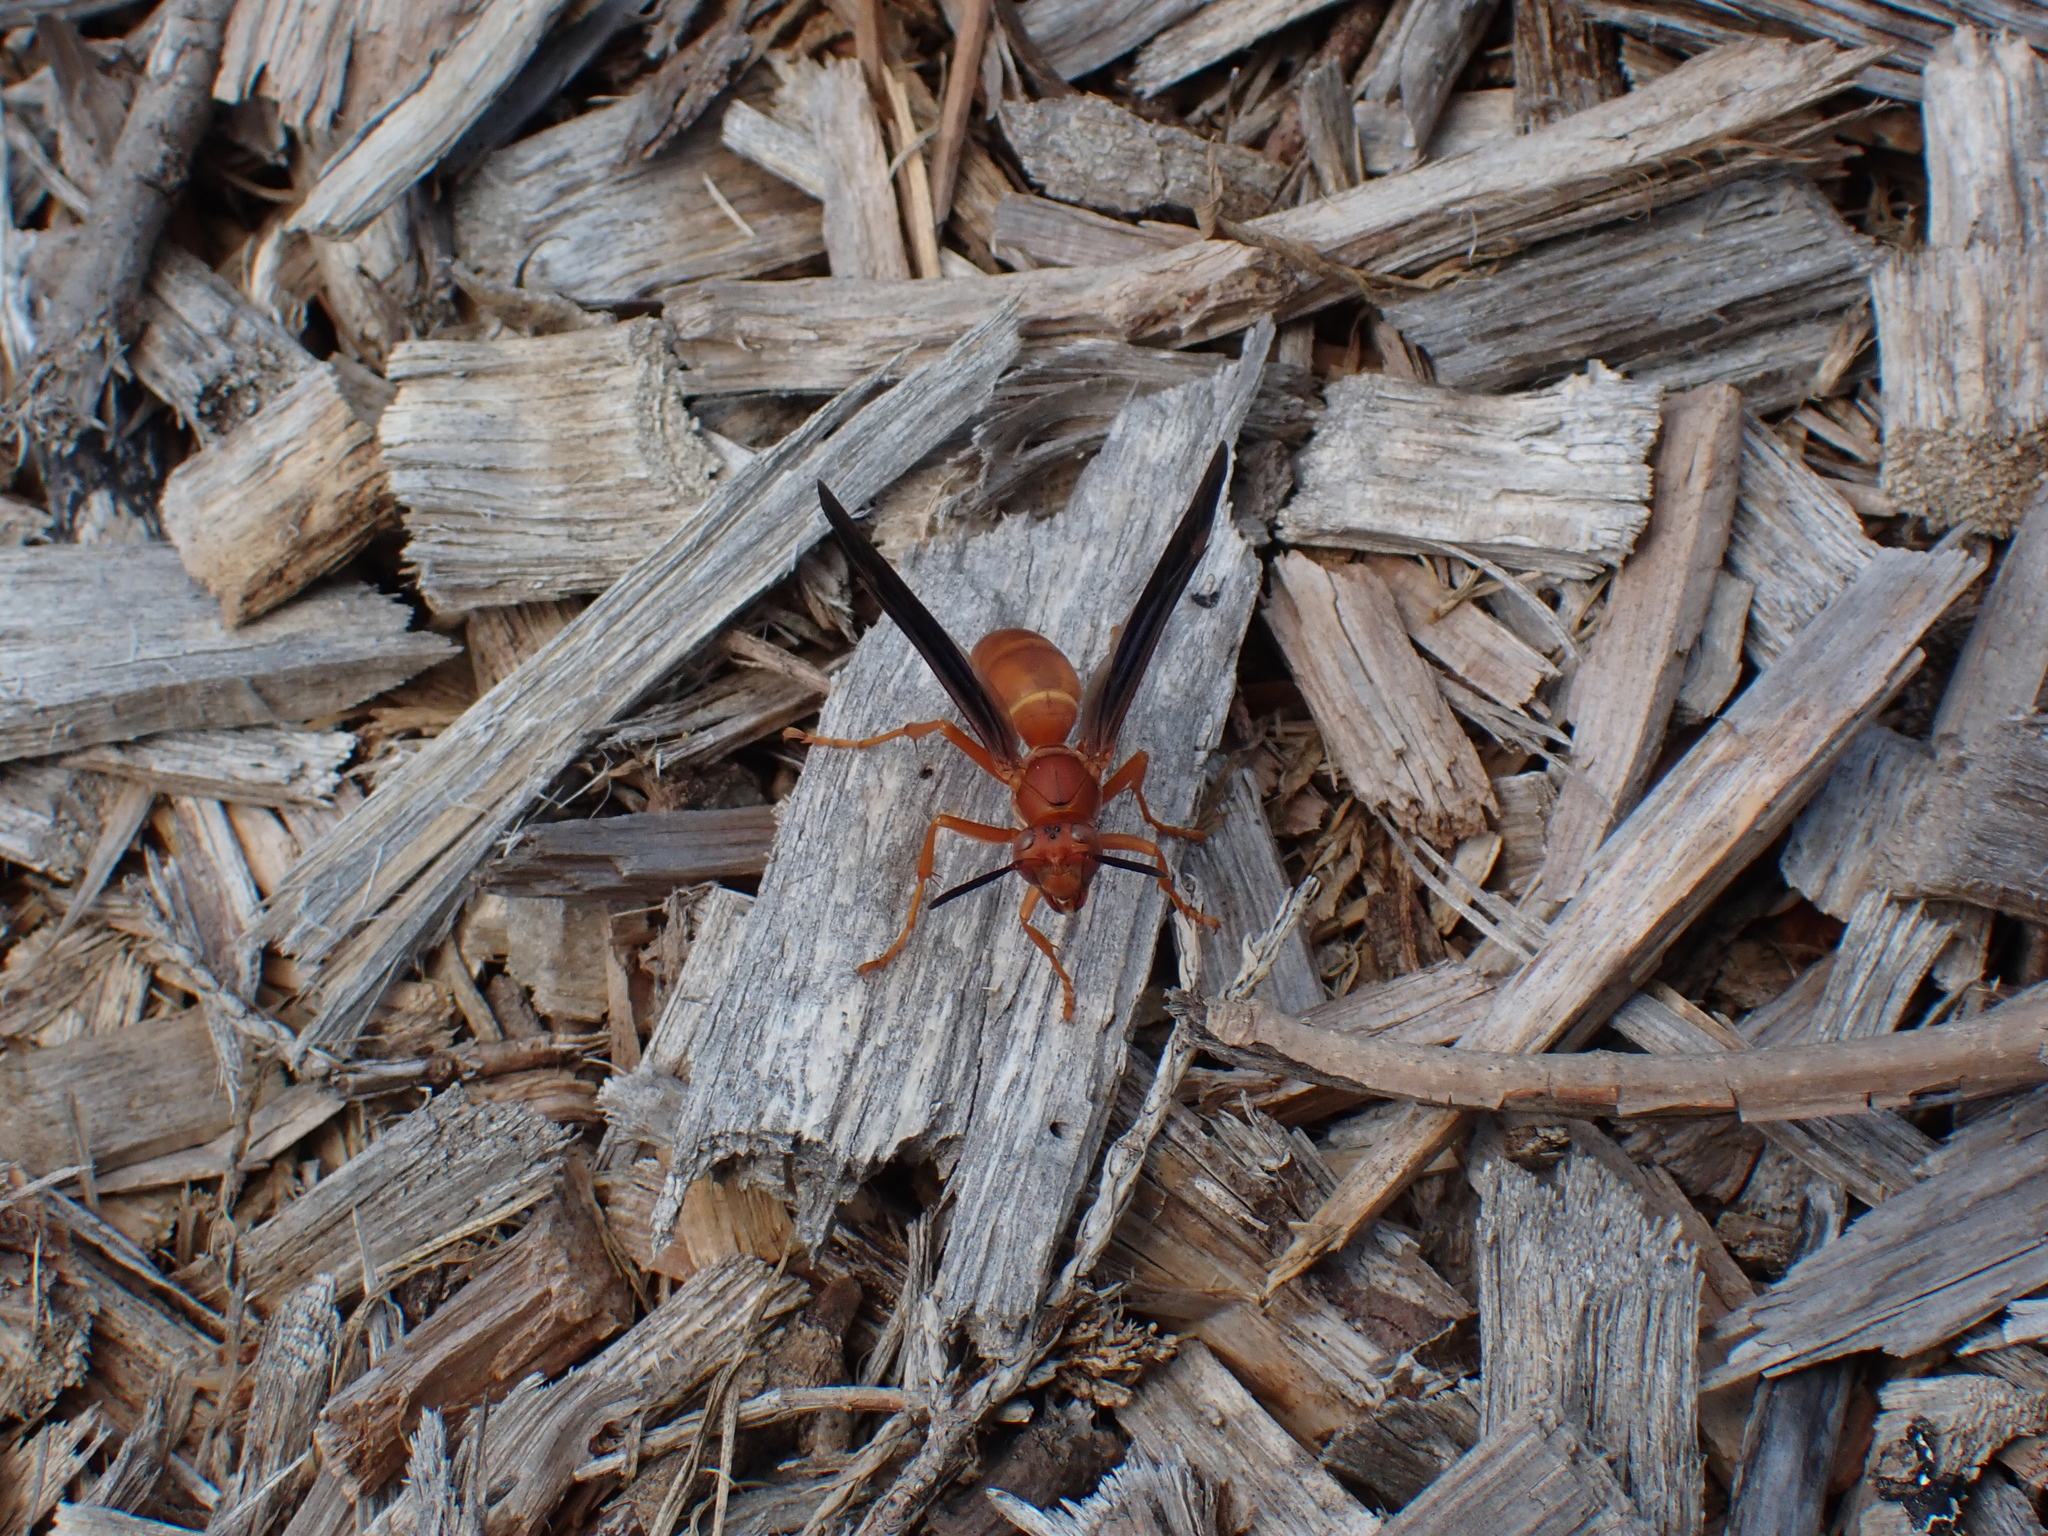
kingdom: Animalia
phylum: Arthropoda
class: Insecta
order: Hymenoptera
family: Eumenidae
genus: Polistes
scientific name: Polistes carolina
